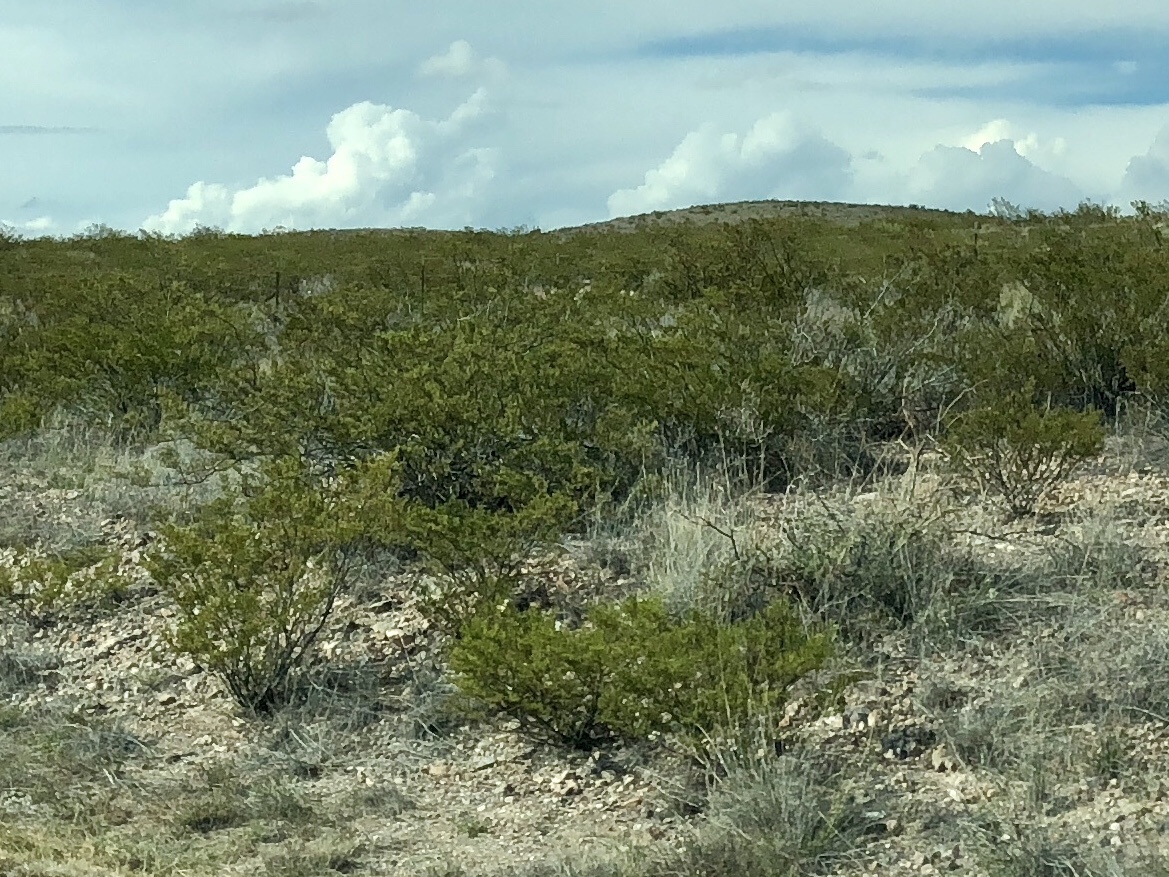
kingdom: Plantae
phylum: Tracheophyta
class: Magnoliopsida
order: Zygophyllales
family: Zygophyllaceae
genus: Larrea
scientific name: Larrea tridentata
